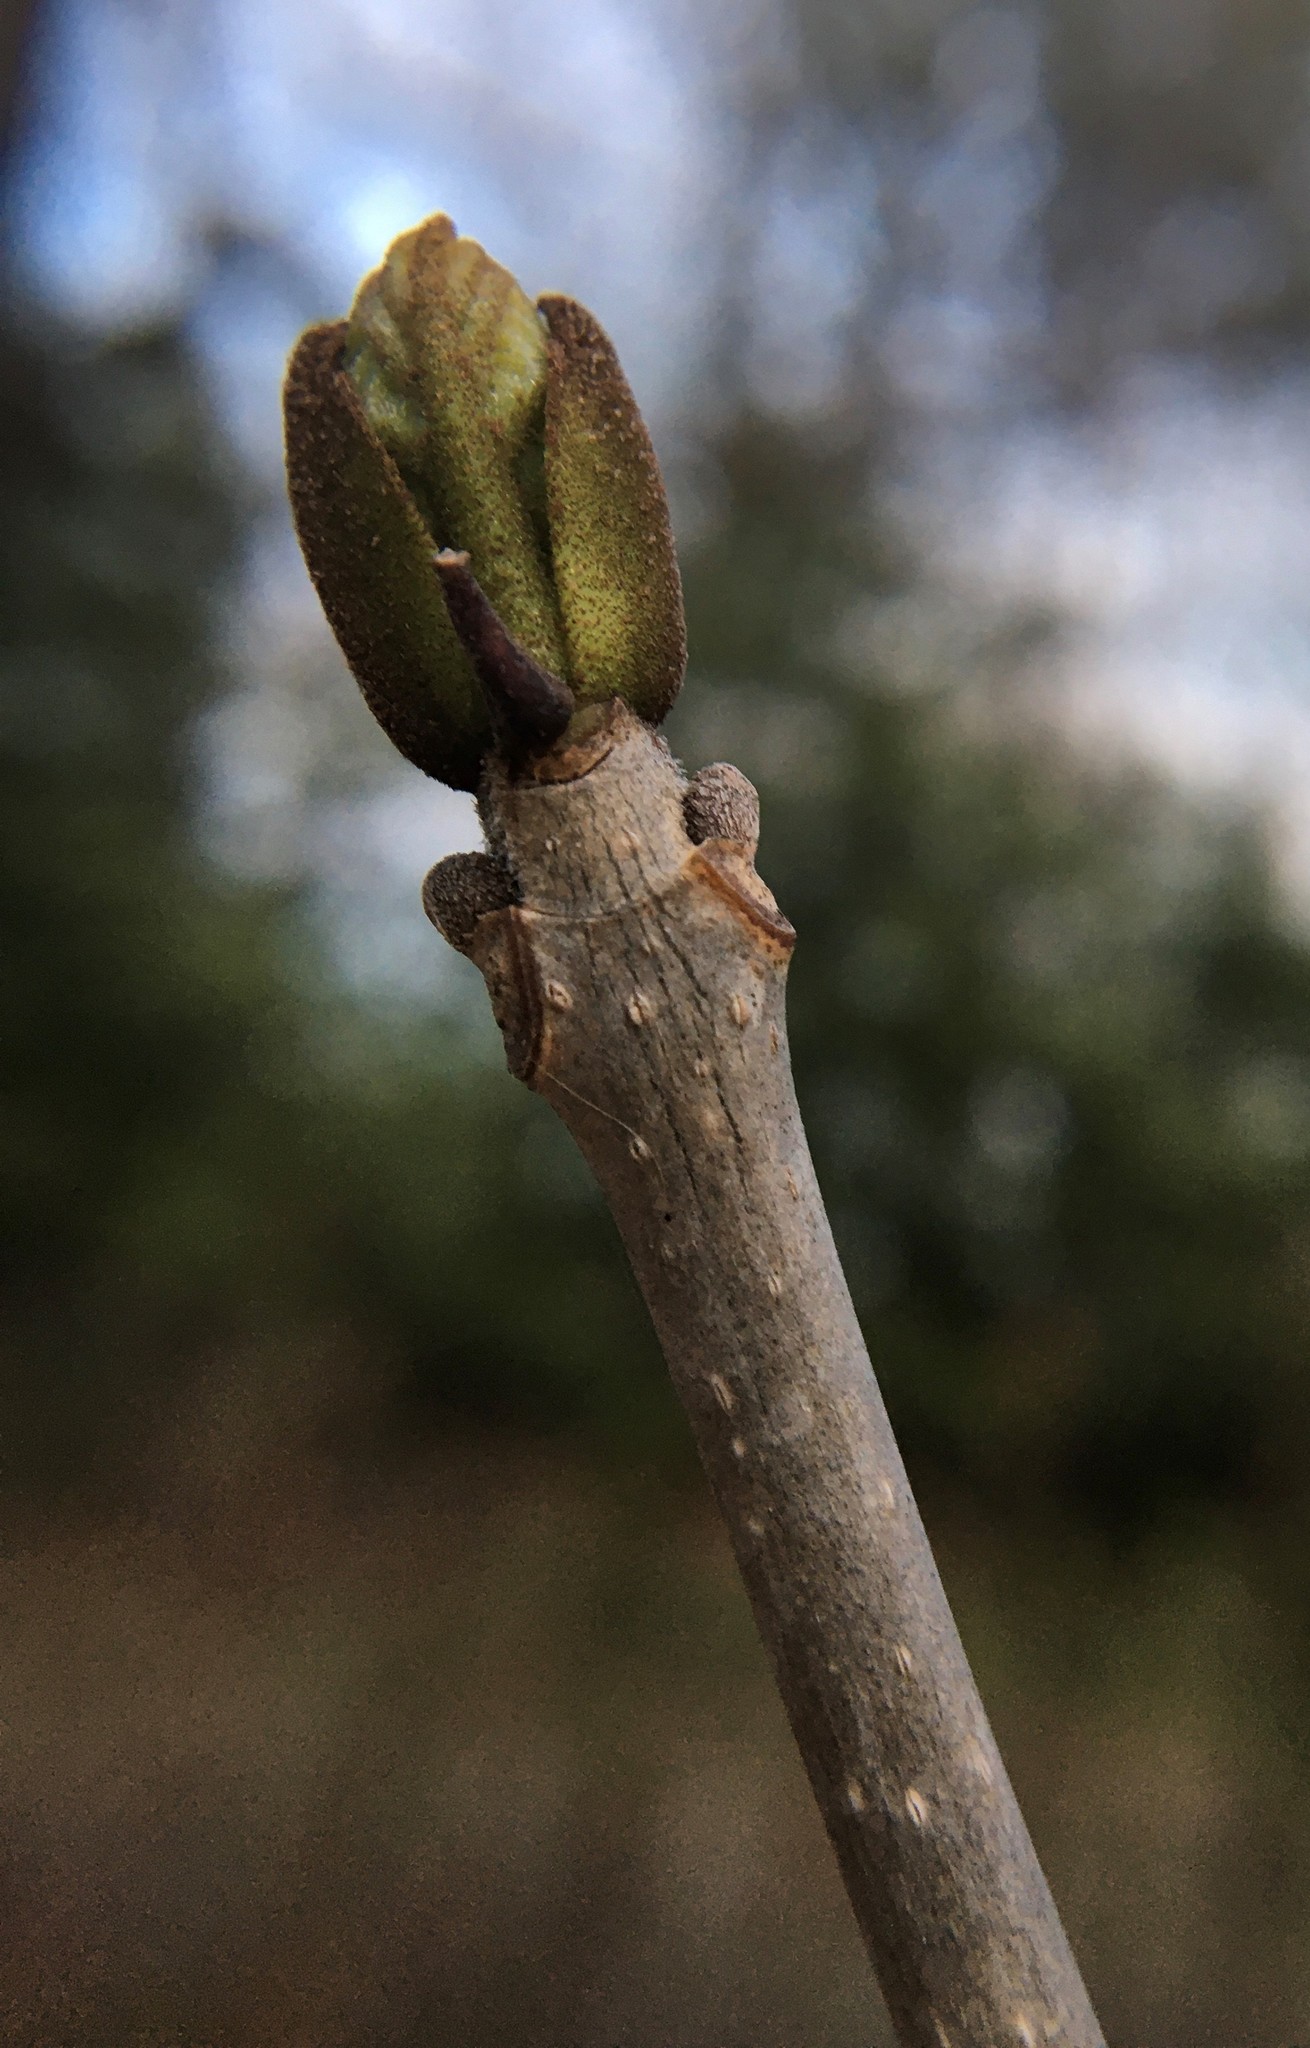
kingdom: Plantae
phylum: Tracheophyta
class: Magnoliopsida
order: Lamiales
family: Oleaceae
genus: Fraxinus
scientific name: Fraxinus nigra
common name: Black ash
